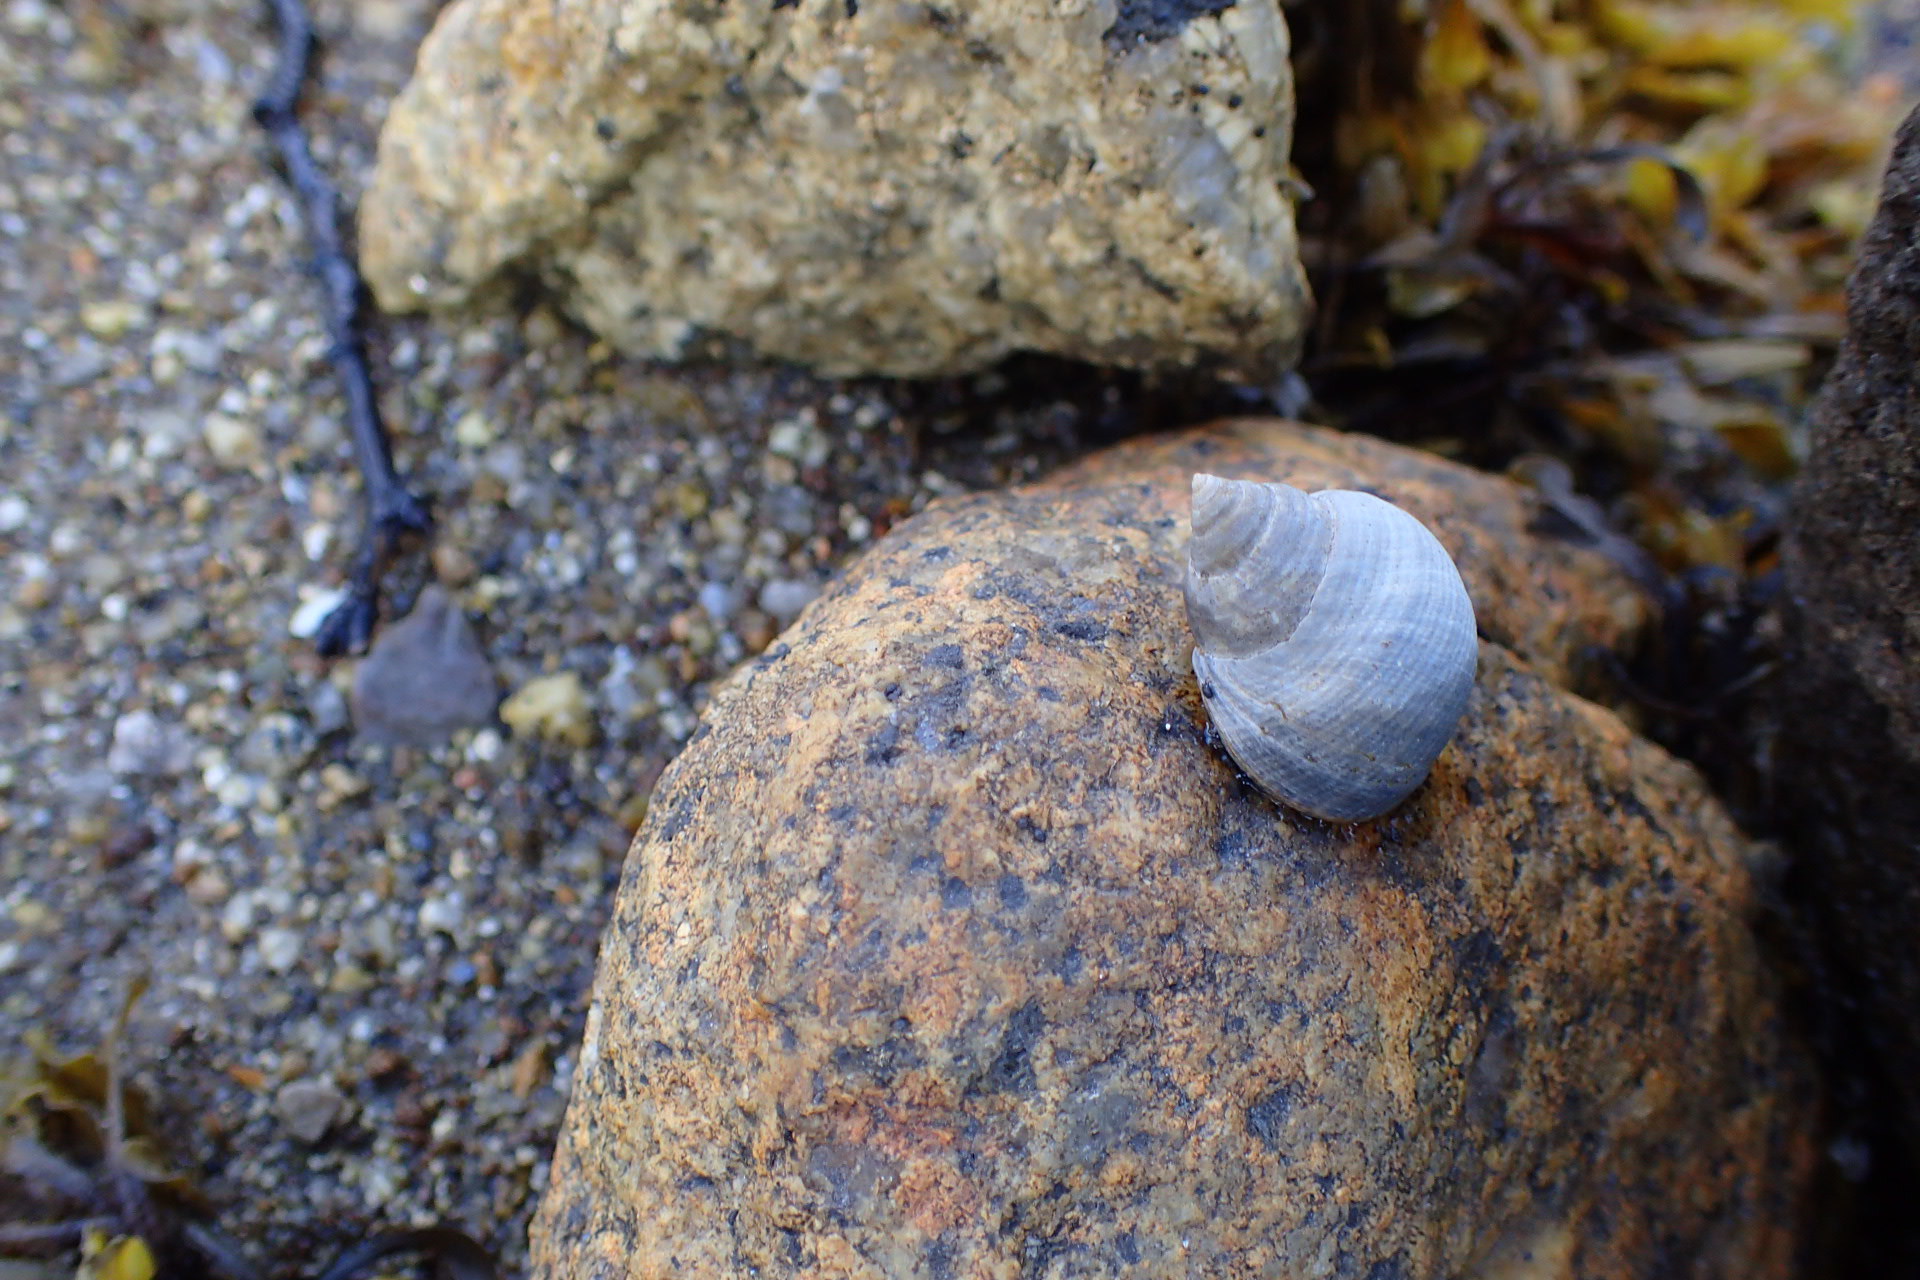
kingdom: Animalia
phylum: Mollusca
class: Gastropoda
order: Littorinimorpha
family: Littorinidae
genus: Littorina
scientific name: Littorina littorea
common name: Common periwinkle
